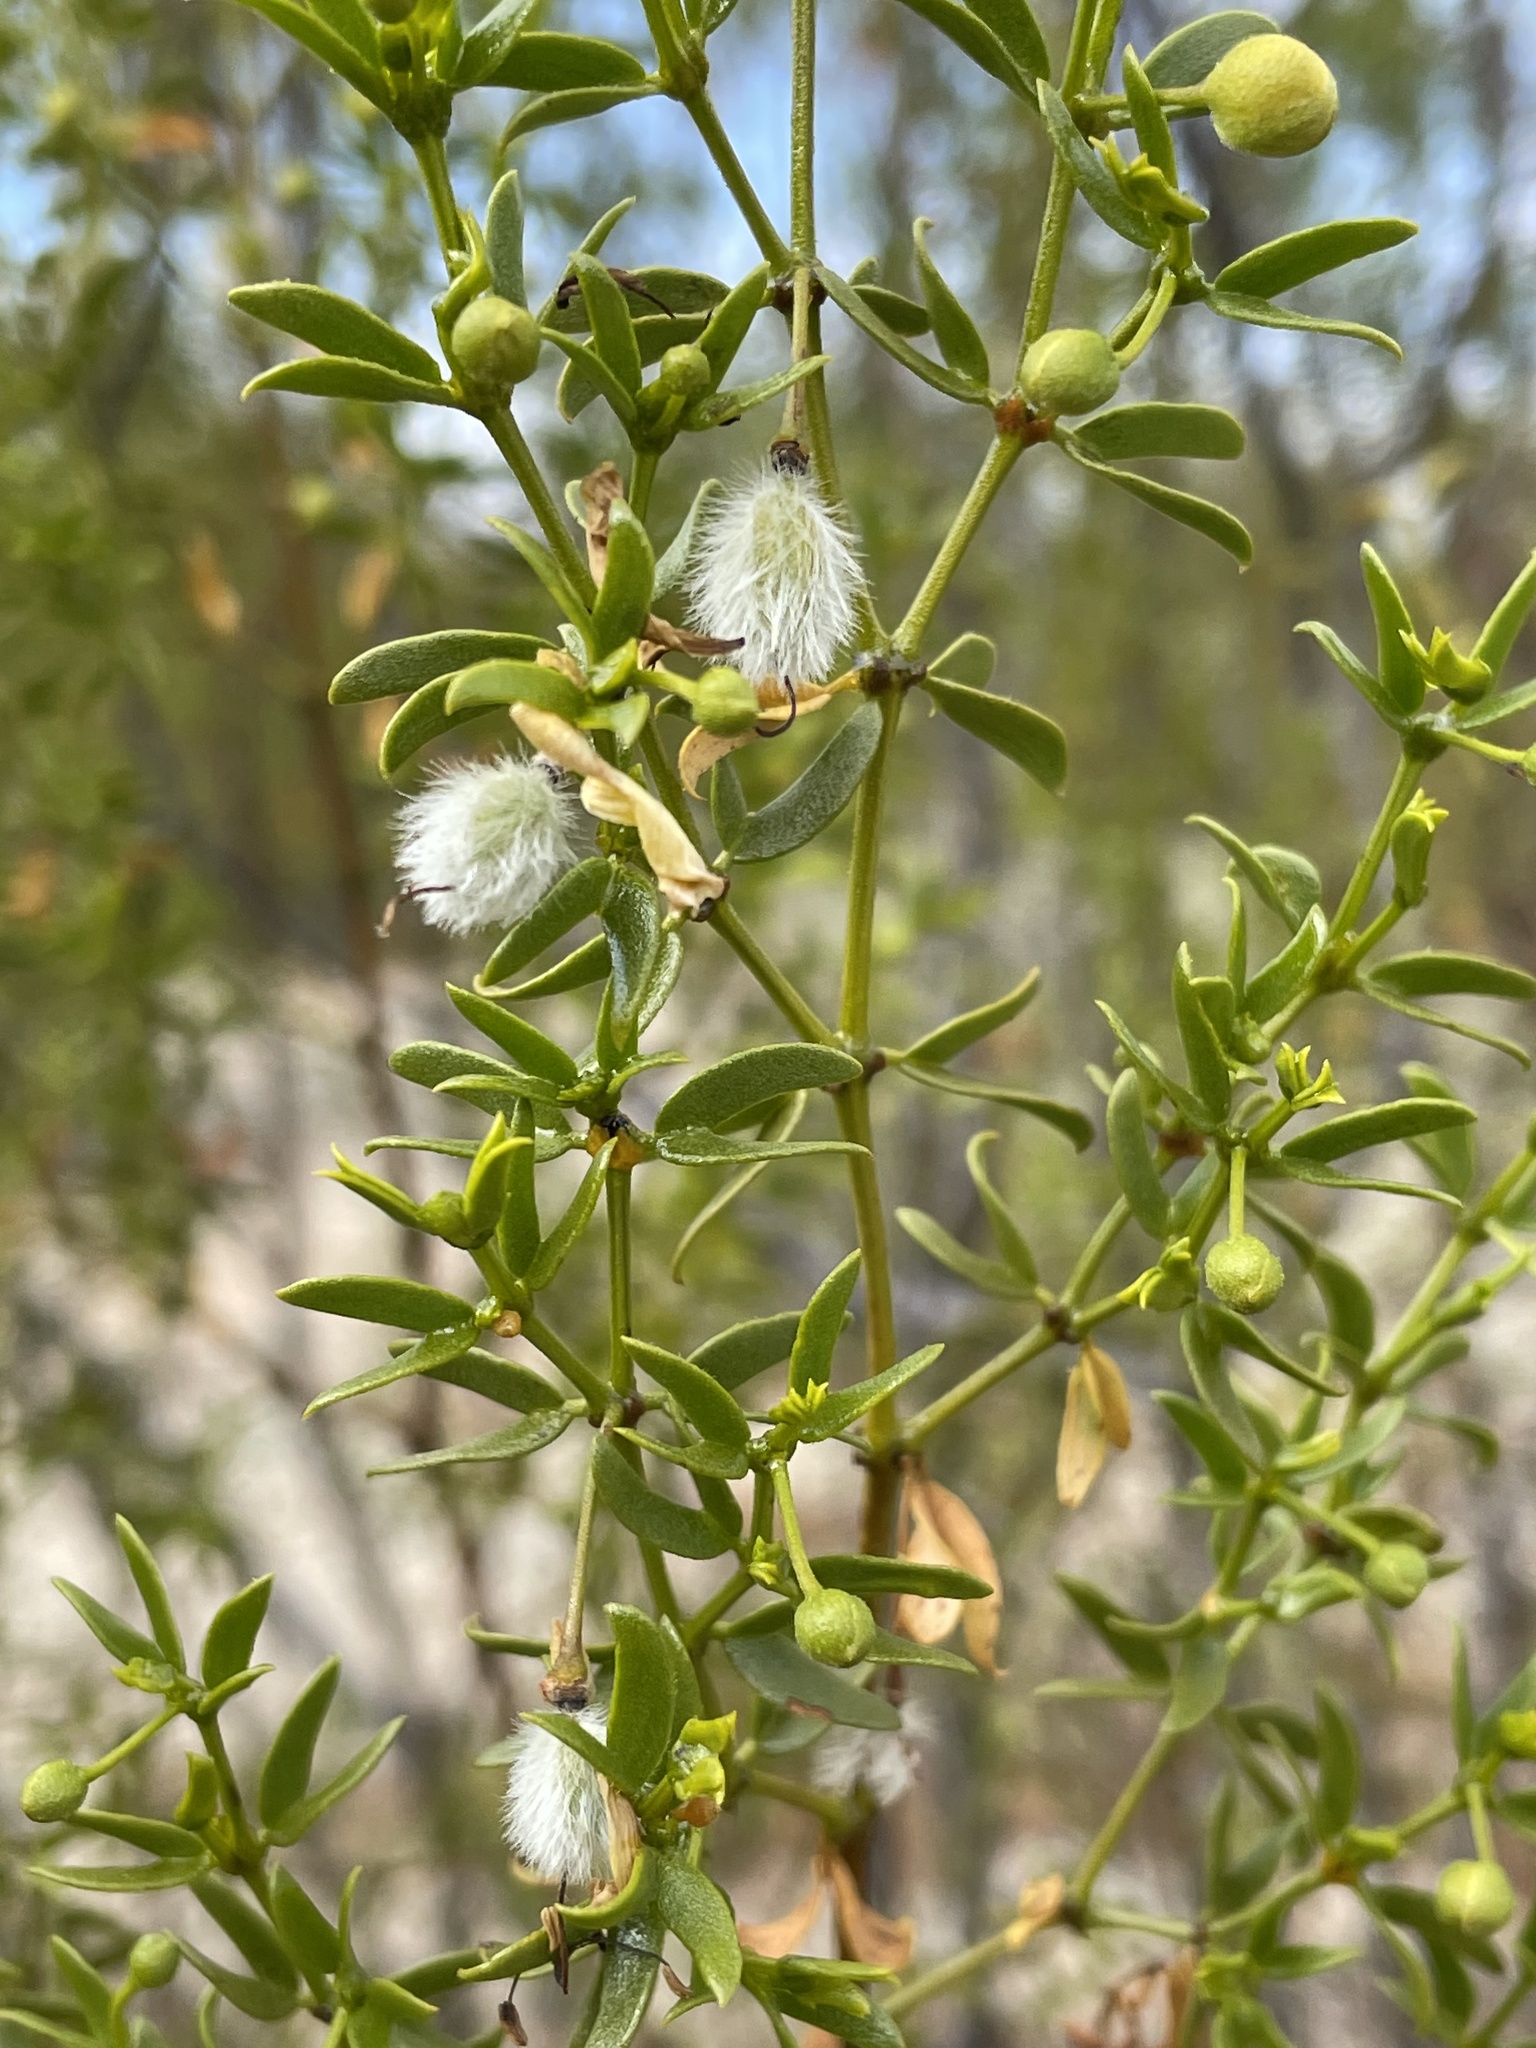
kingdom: Plantae
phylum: Tracheophyta
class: Magnoliopsida
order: Zygophyllales
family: Zygophyllaceae
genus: Larrea
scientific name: Larrea tridentata
